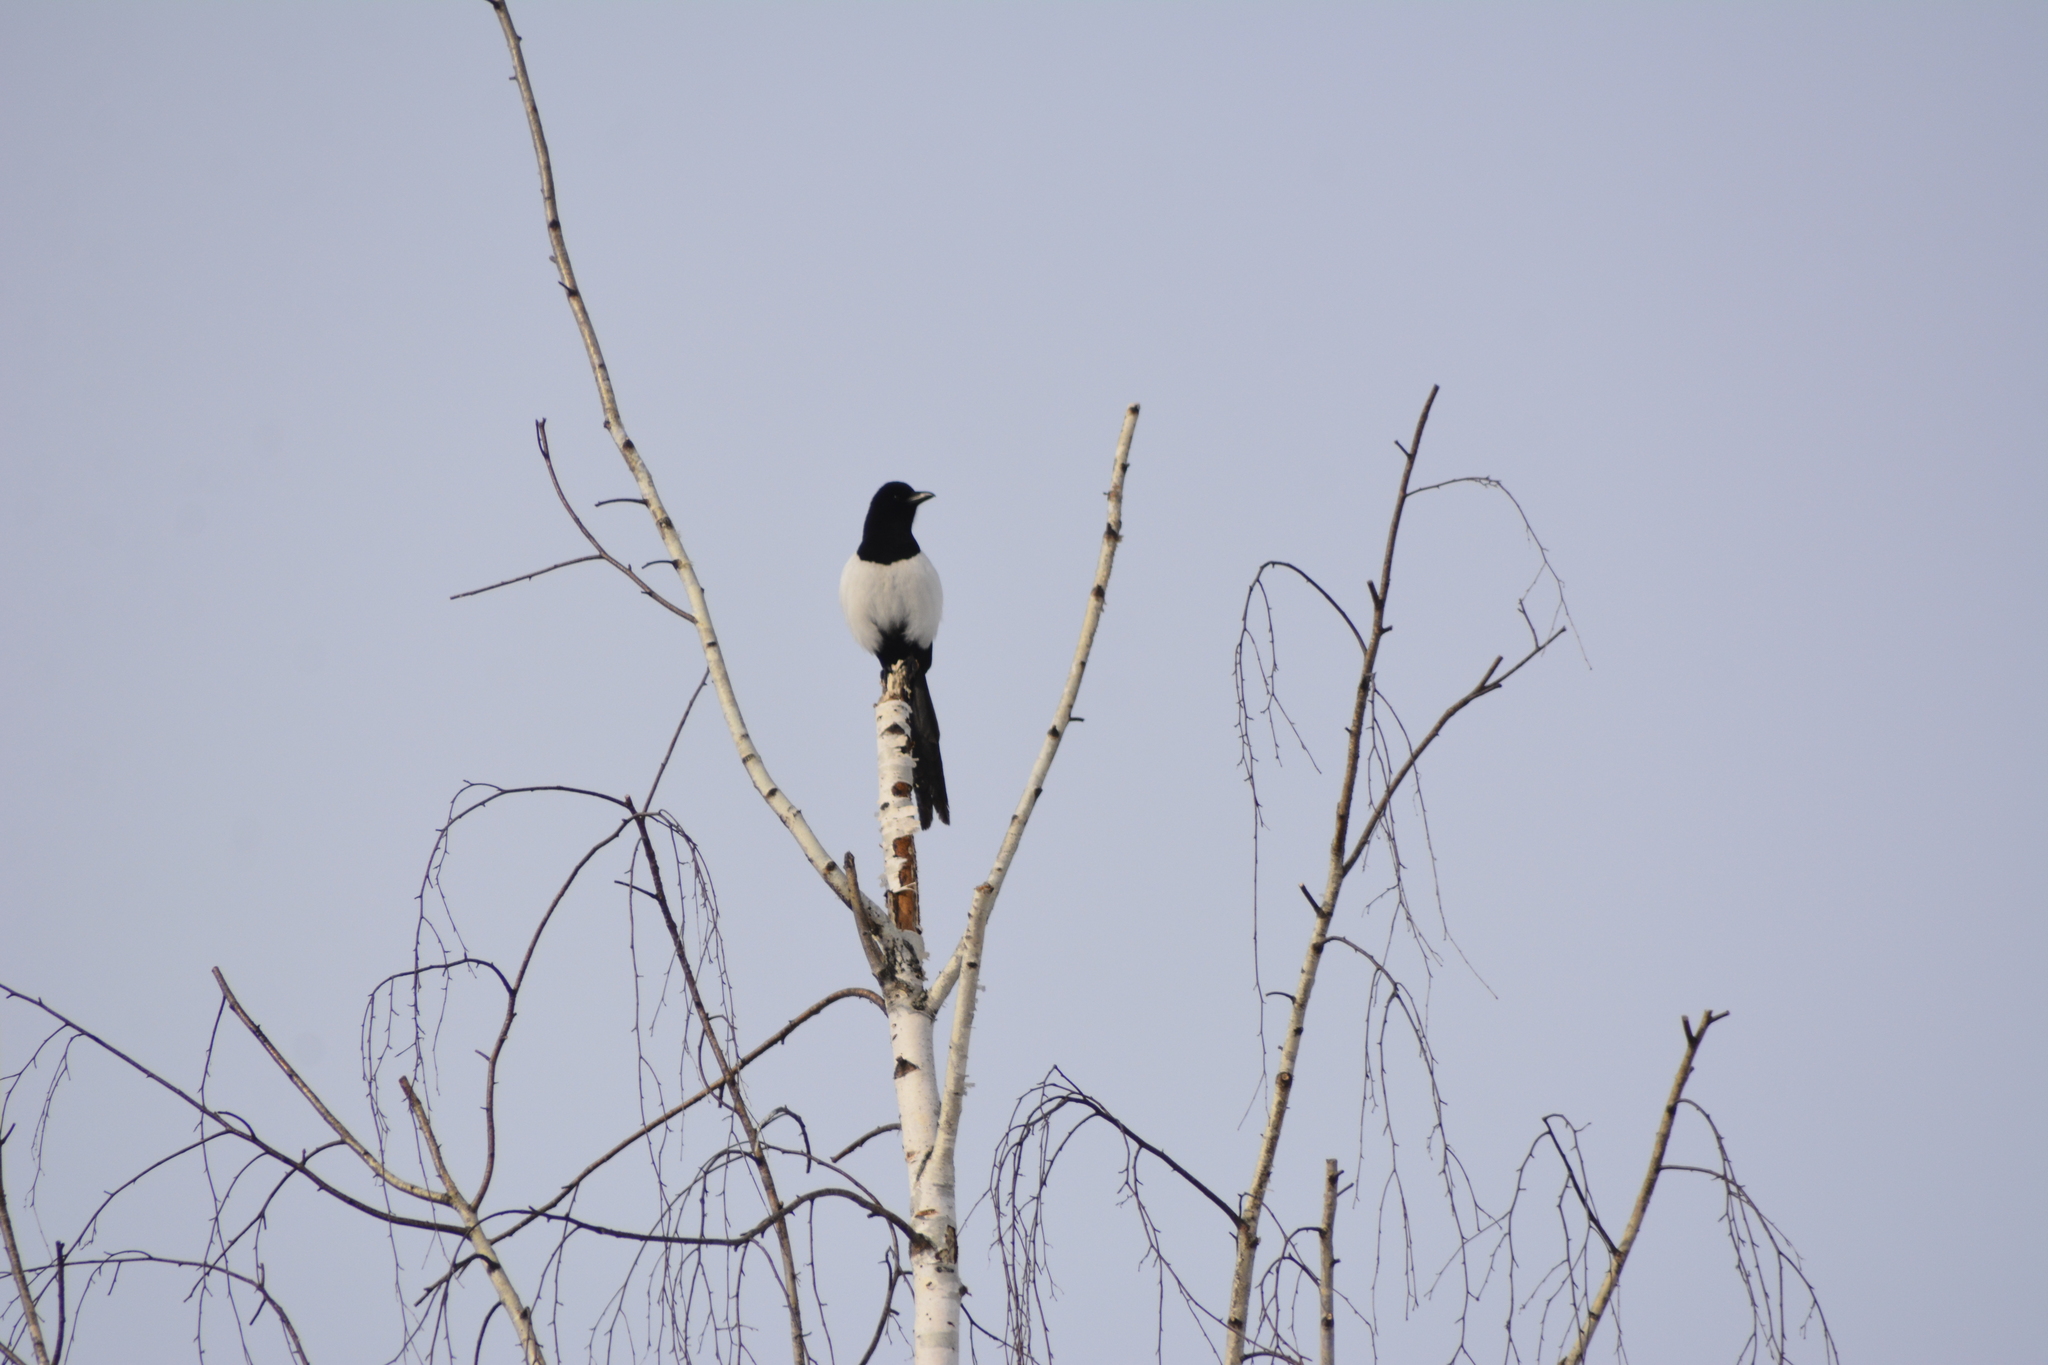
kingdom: Animalia
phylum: Chordata
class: Aves
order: Passeriformes
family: Corvidae
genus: Pica
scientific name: Pica pica
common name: Eurasian magpie
